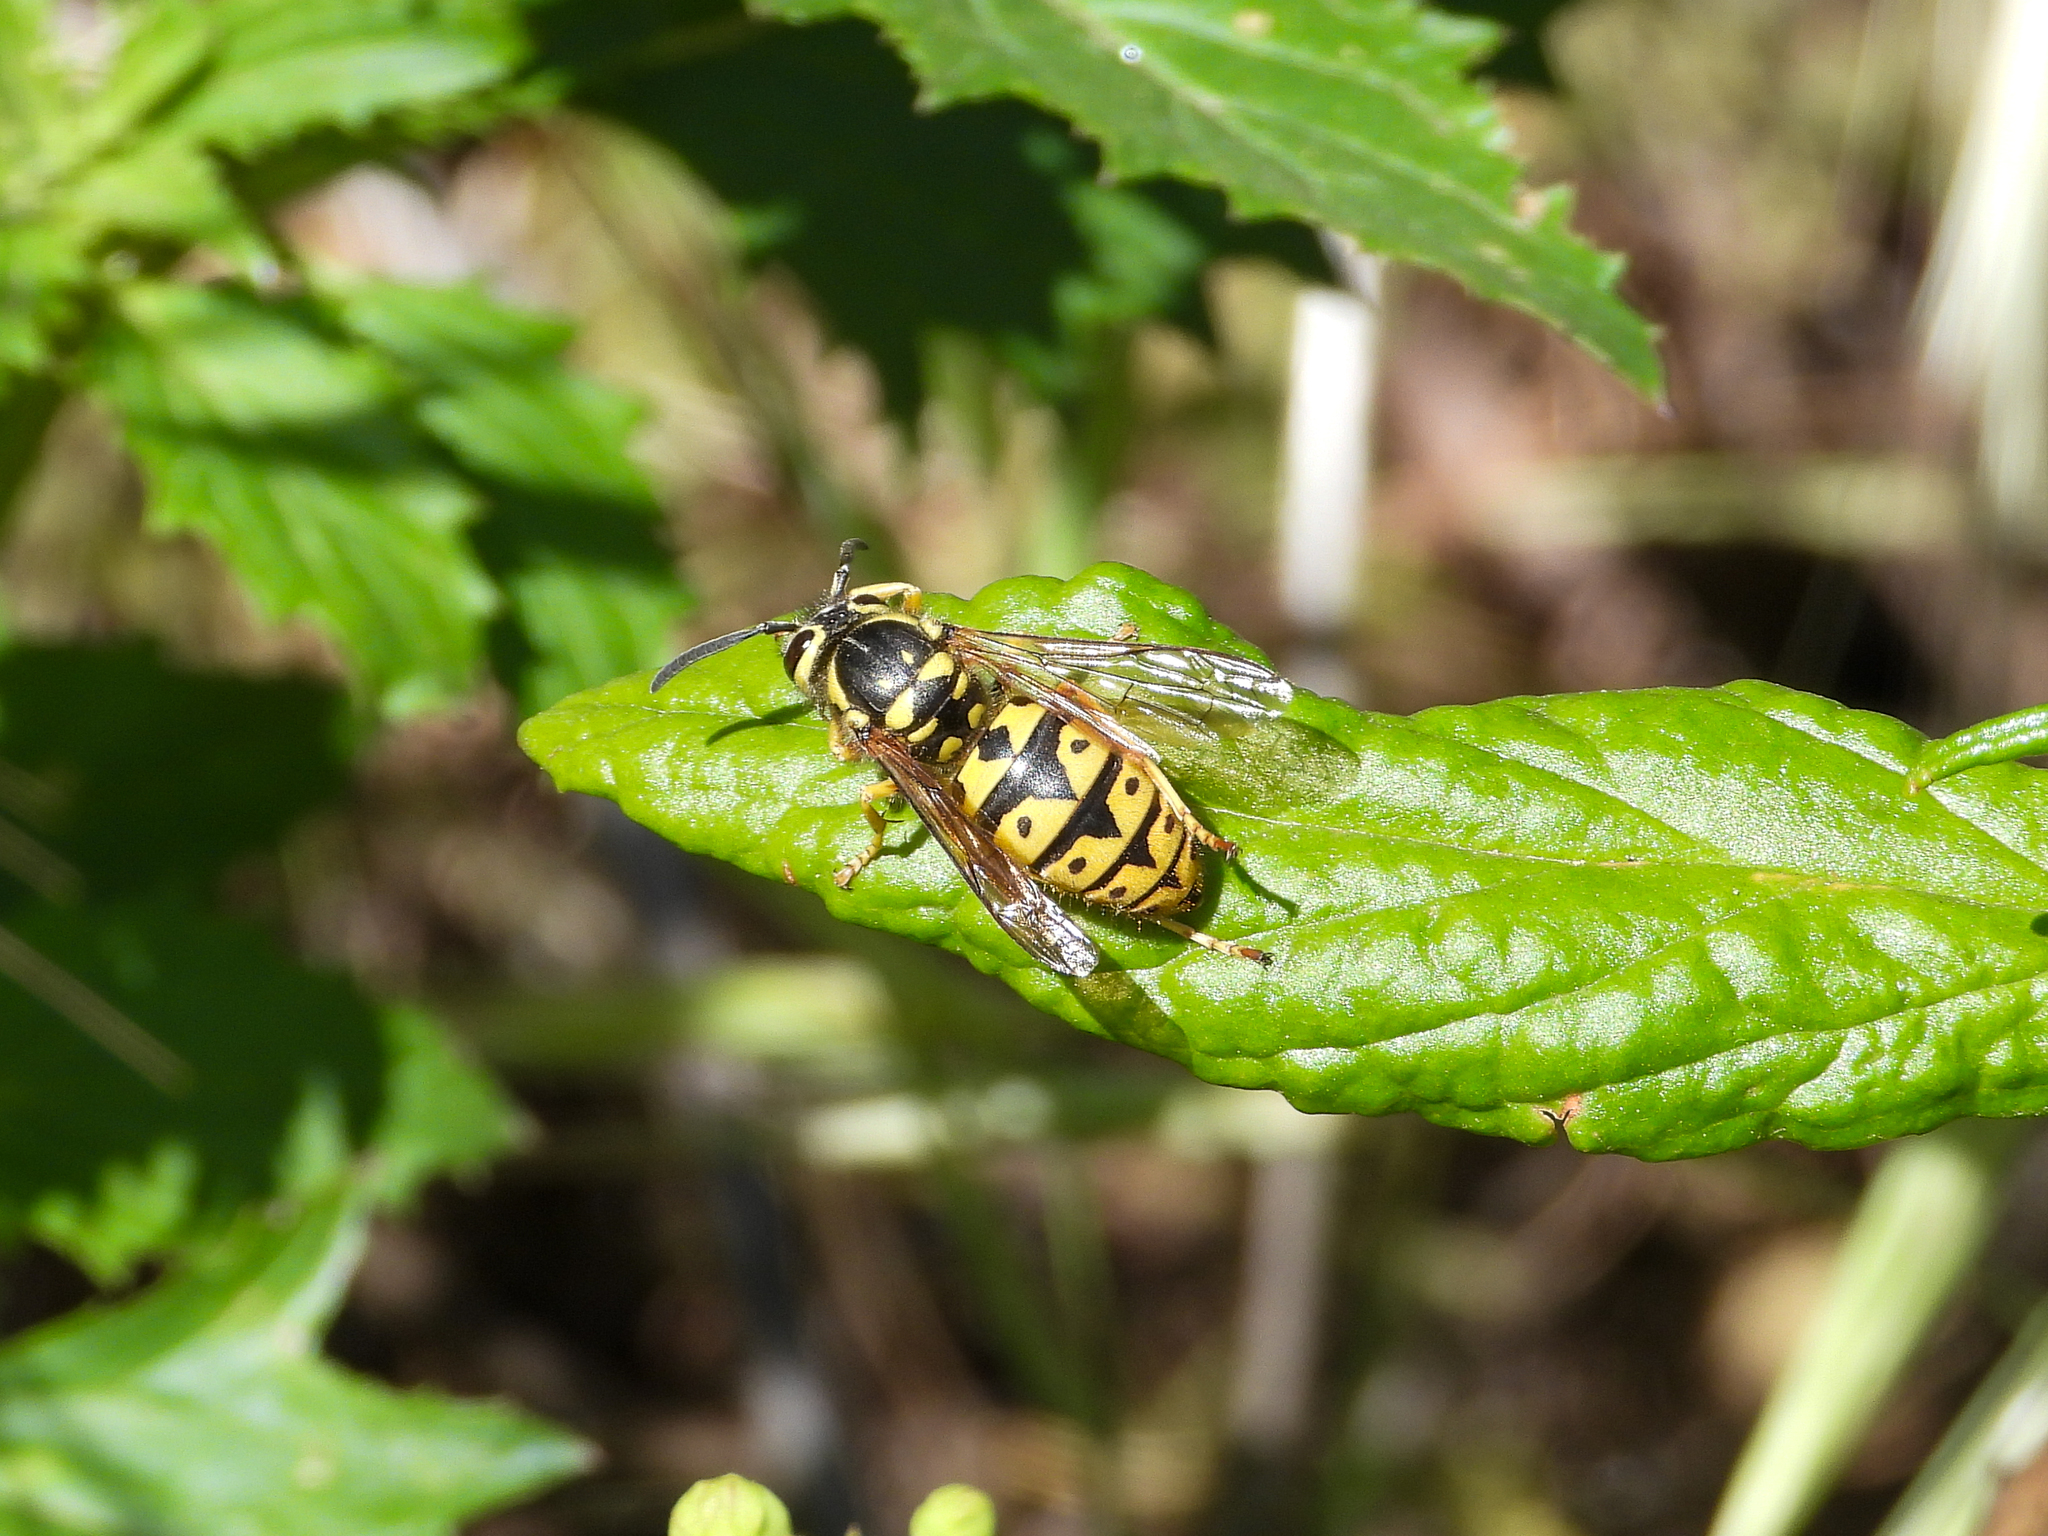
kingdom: Animalia
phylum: Arthropoda
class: Insecta
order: Hymenoptera
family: Vespidae
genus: Vespula
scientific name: Vespula pensylvanica
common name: Western yellowjacket
